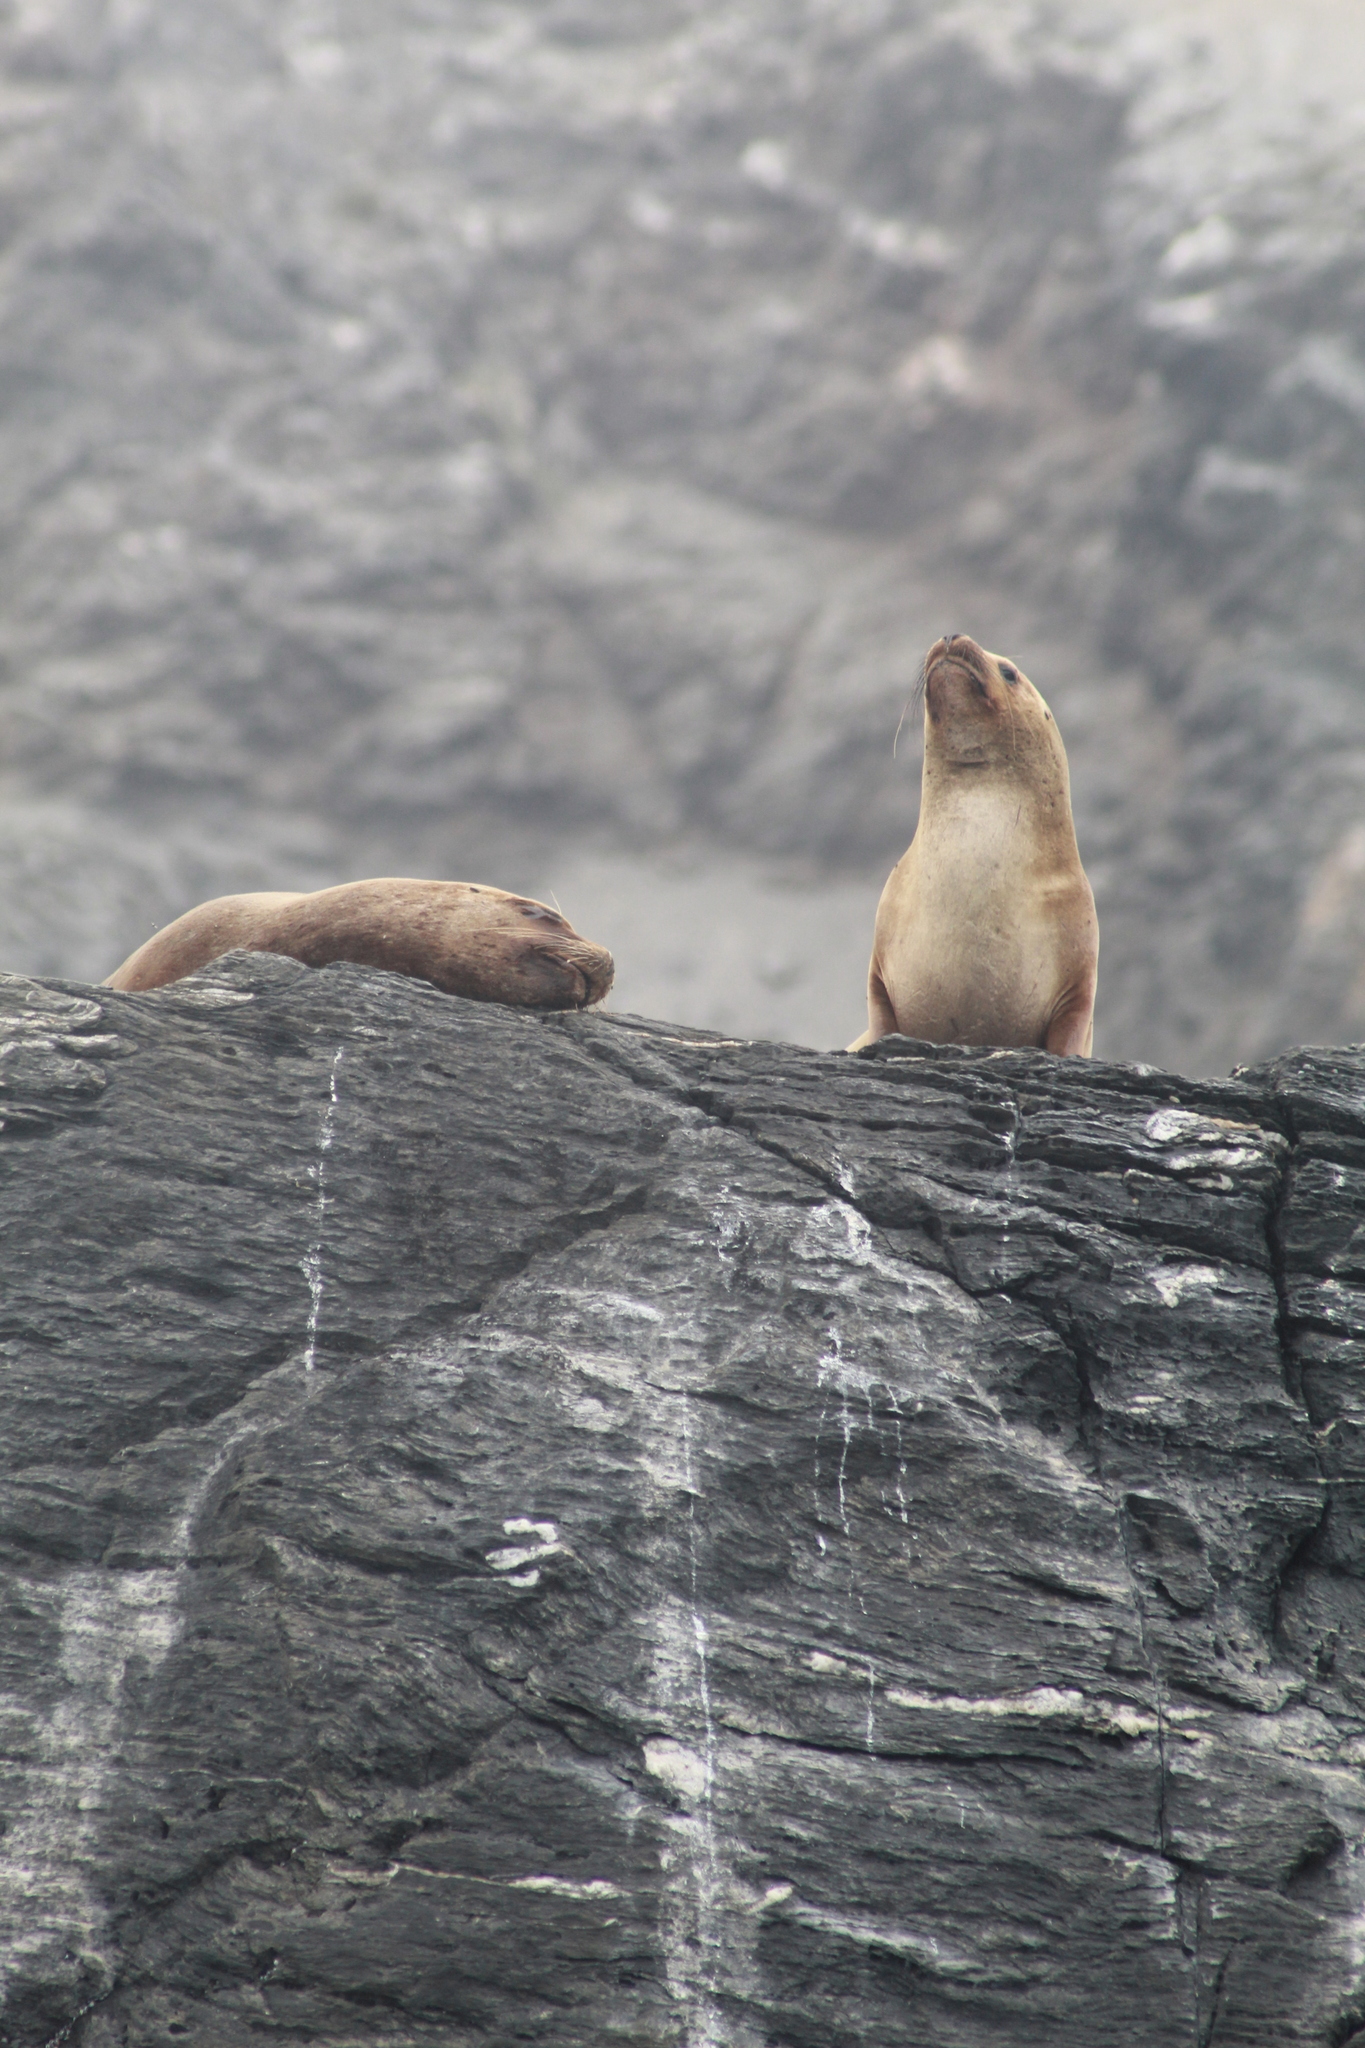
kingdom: Animalia
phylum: Chordata
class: Mammalia
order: Carnivora
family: Otariidae
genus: Otaria
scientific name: Otaria byronia
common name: South american sea lion
